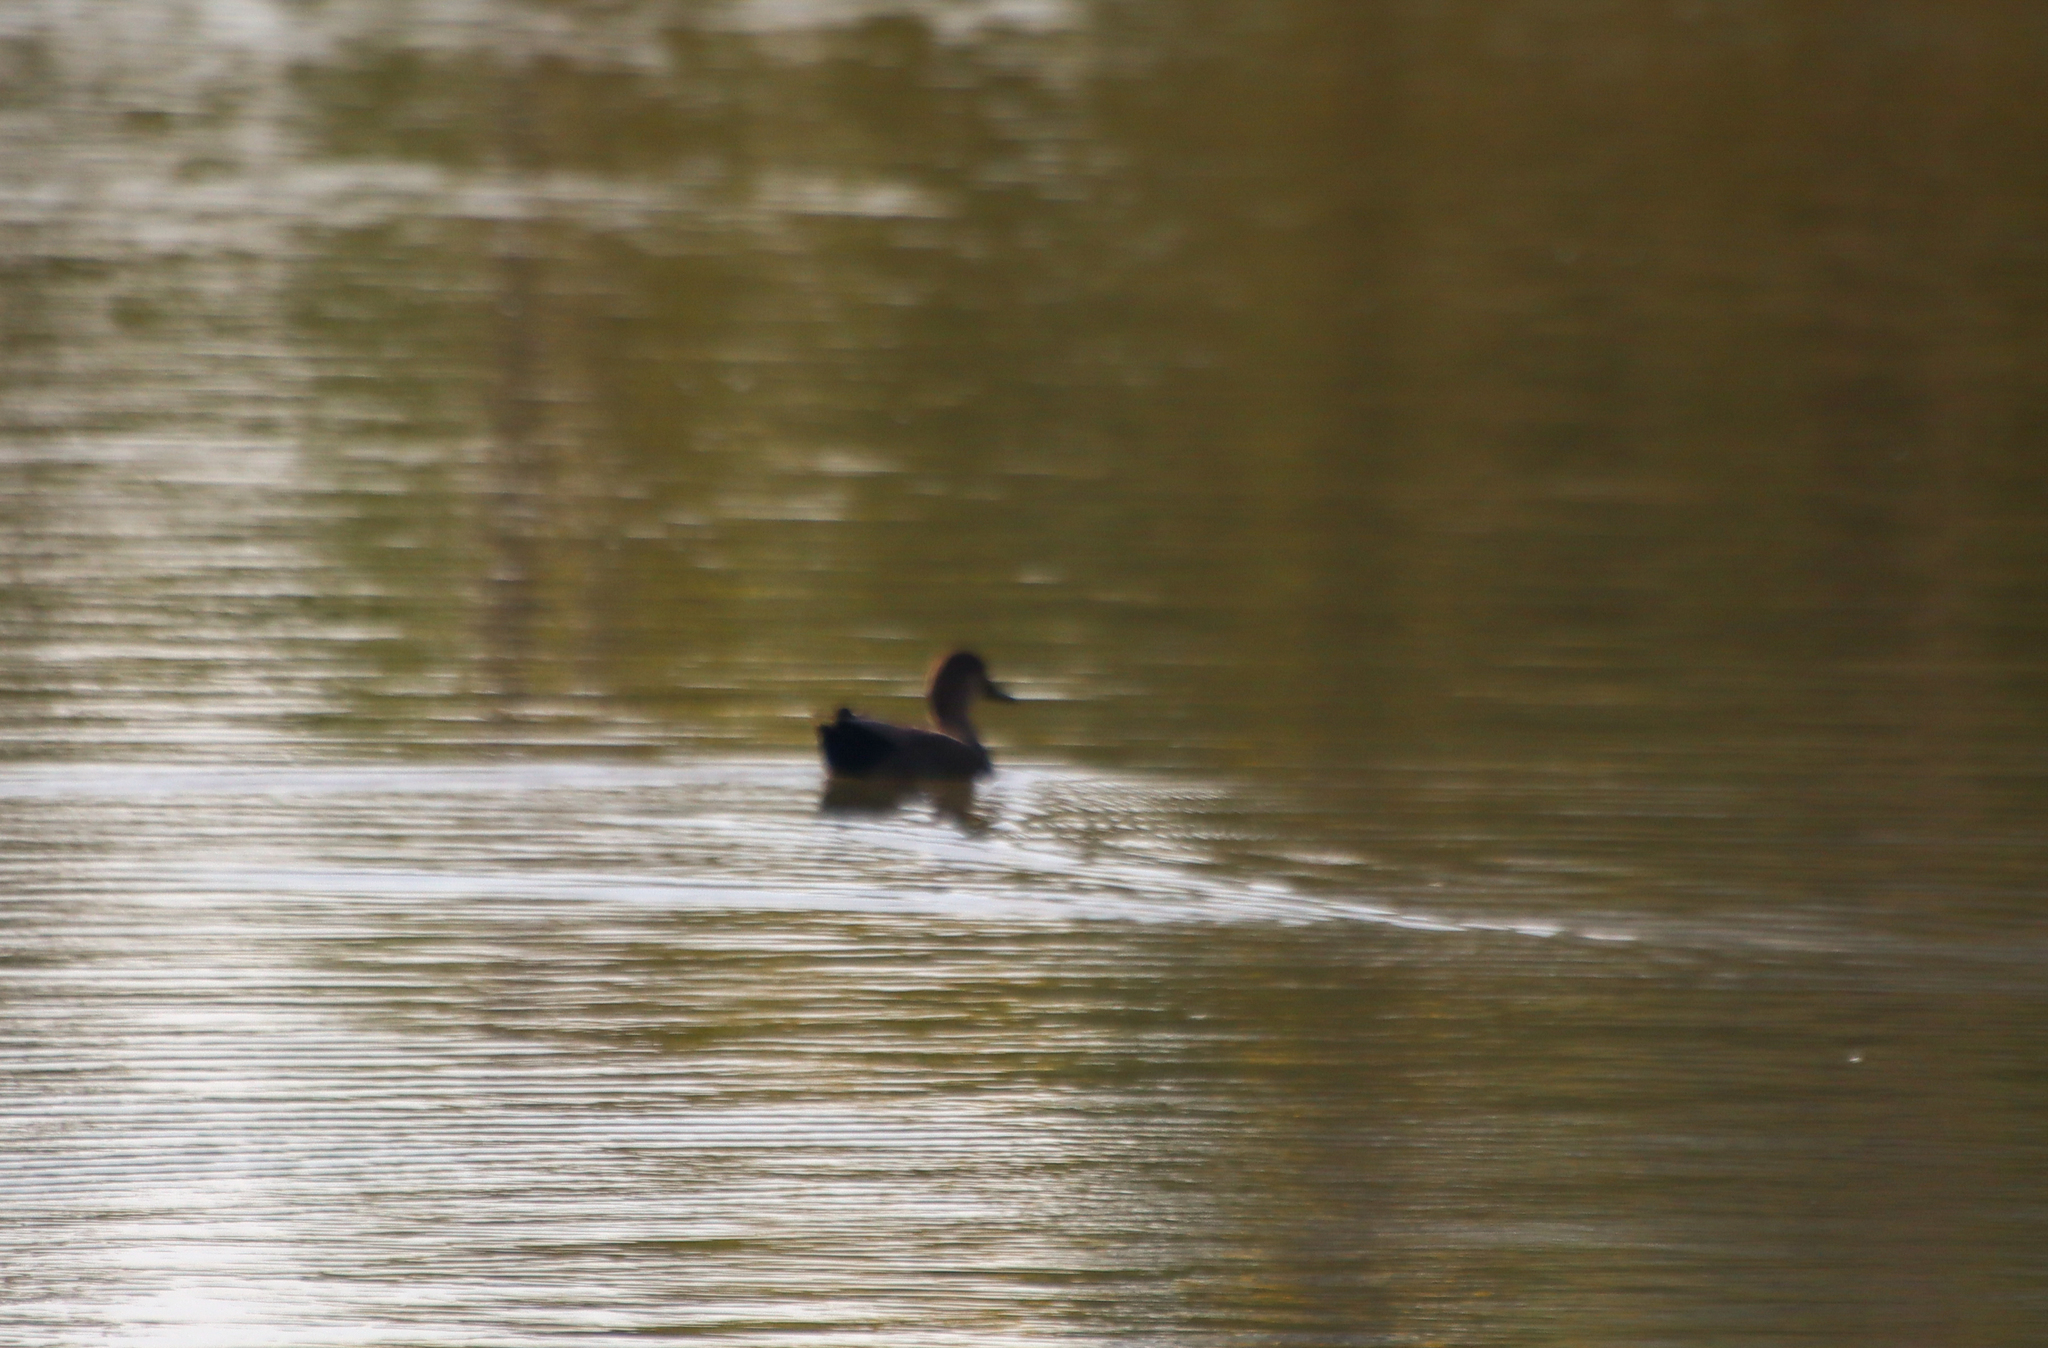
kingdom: Animalia
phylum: Chordata
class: Aves
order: Anseriformes
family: Anatidae
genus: Mareca
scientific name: Mareca strepera
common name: Gadwall
